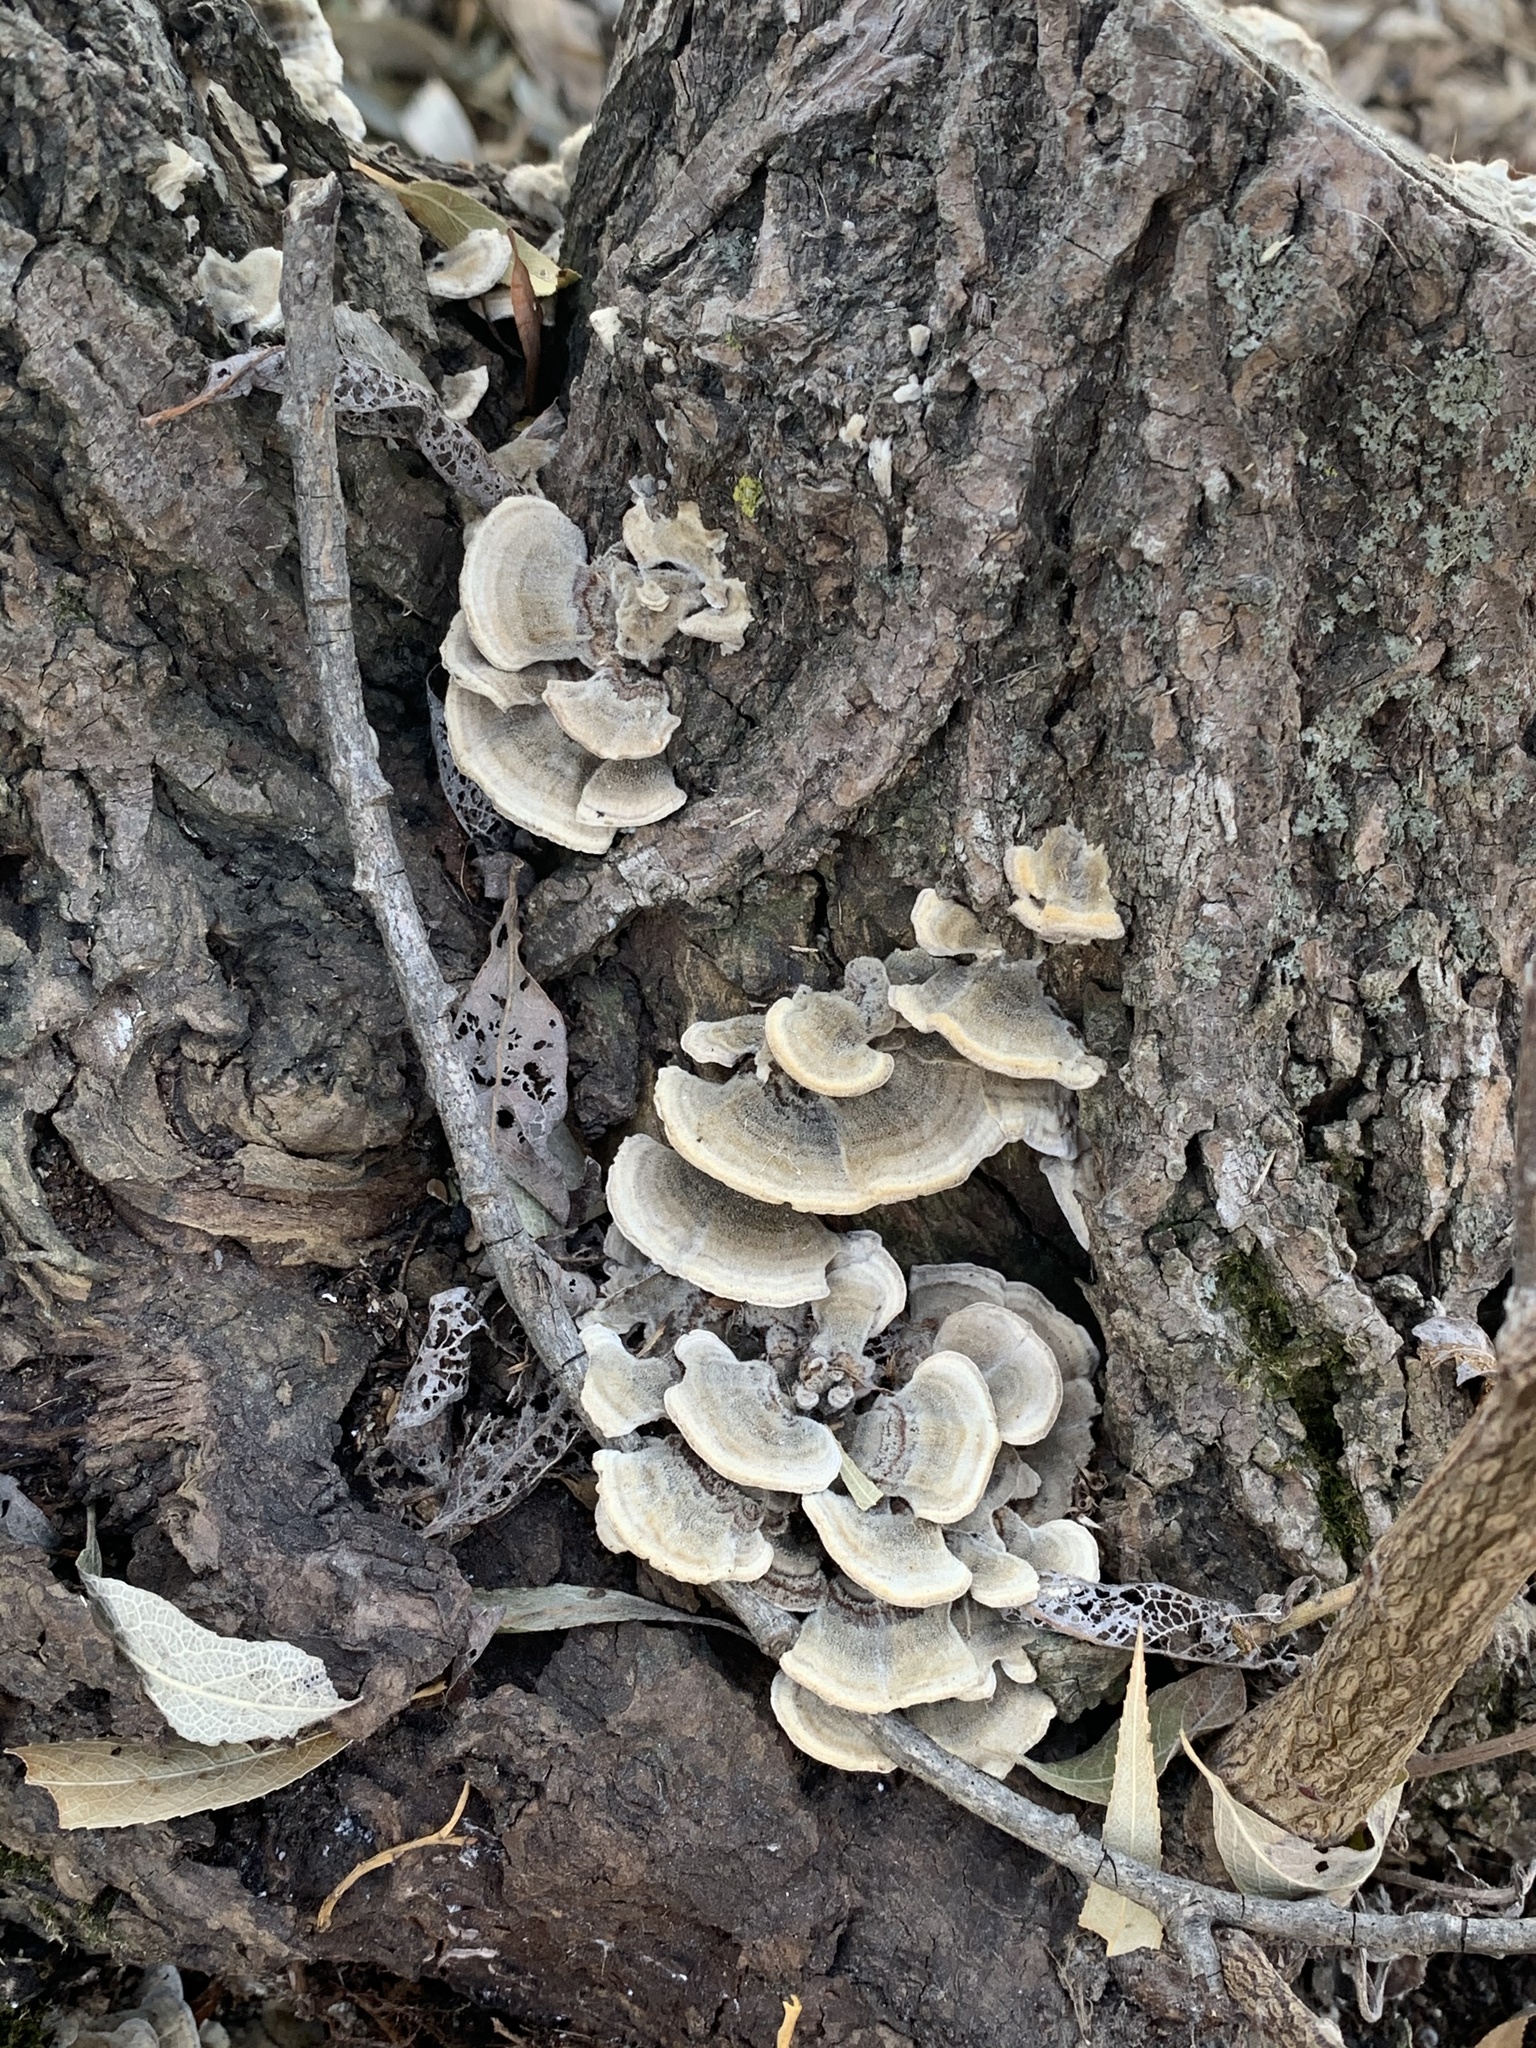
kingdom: Fungi
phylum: Basidiomycota
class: Agaricomycetes
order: Polyporales
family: Polyporaceae
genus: Trametes
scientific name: Trametes versicolor
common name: Turkeytail
